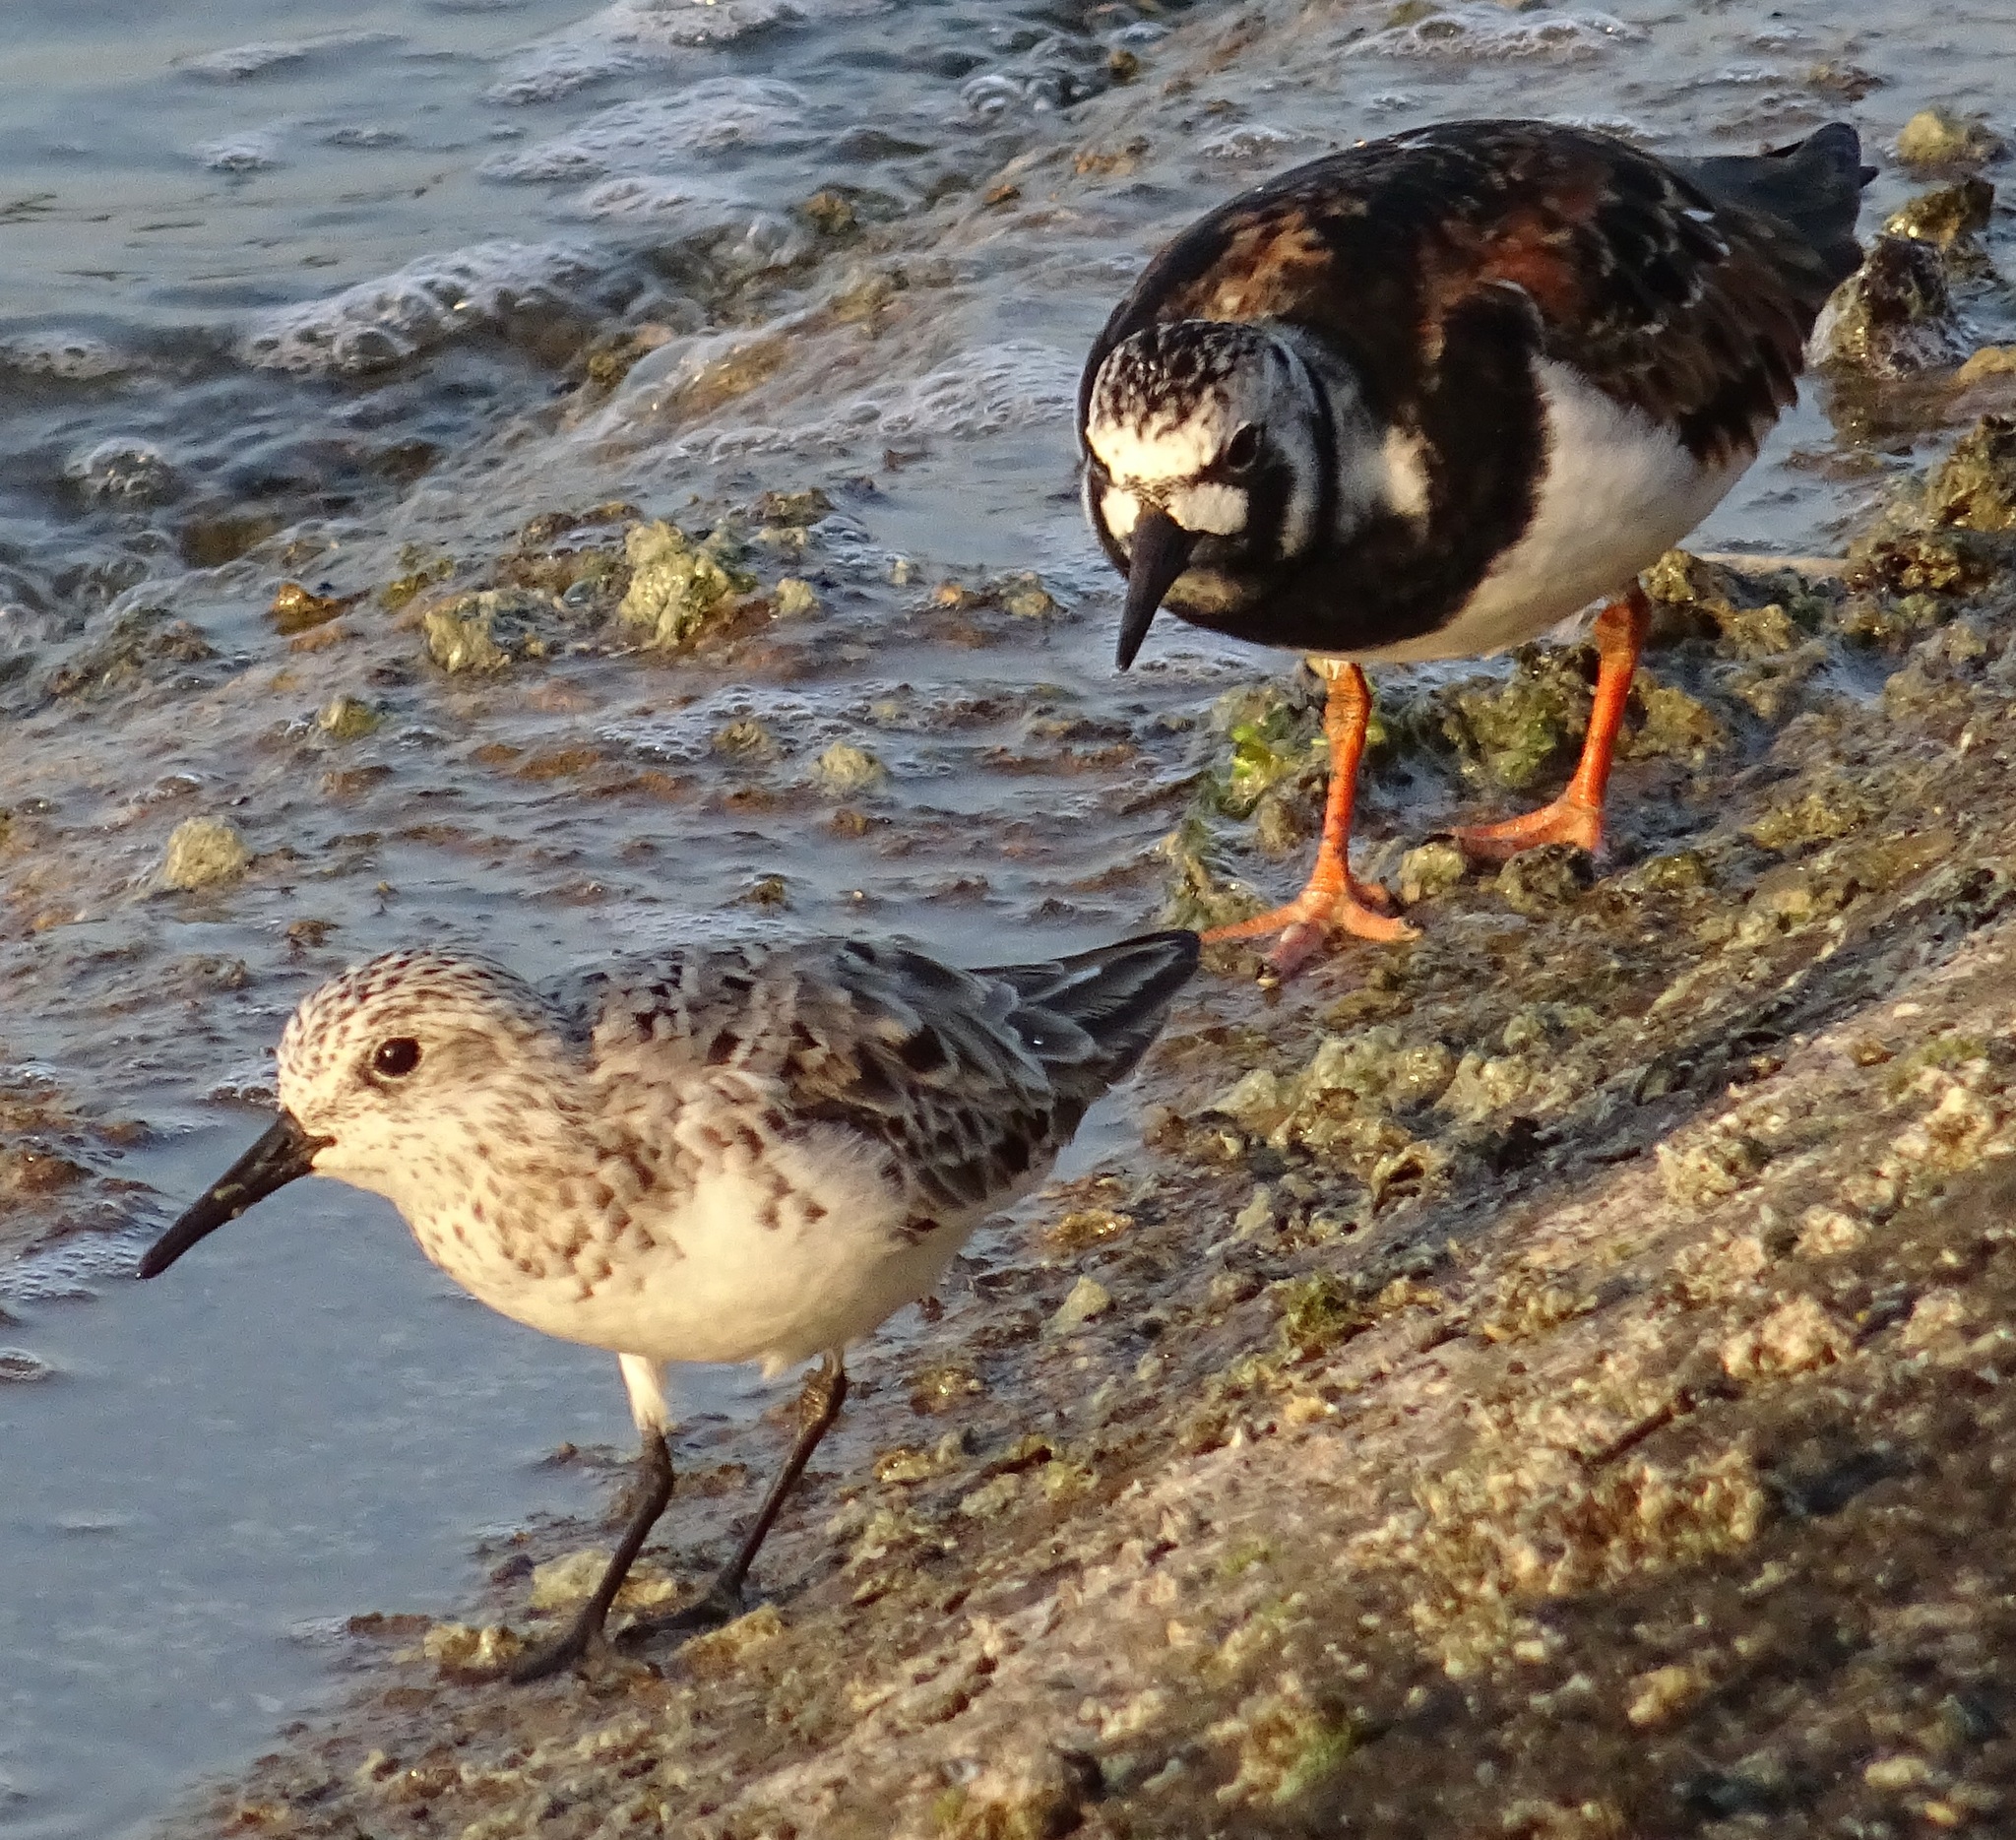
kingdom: Animalia
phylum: Chordata
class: Aves
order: Charadriiformes
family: Scolopacidae
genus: Calidris
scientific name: Calidris alba
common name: Sanderling
